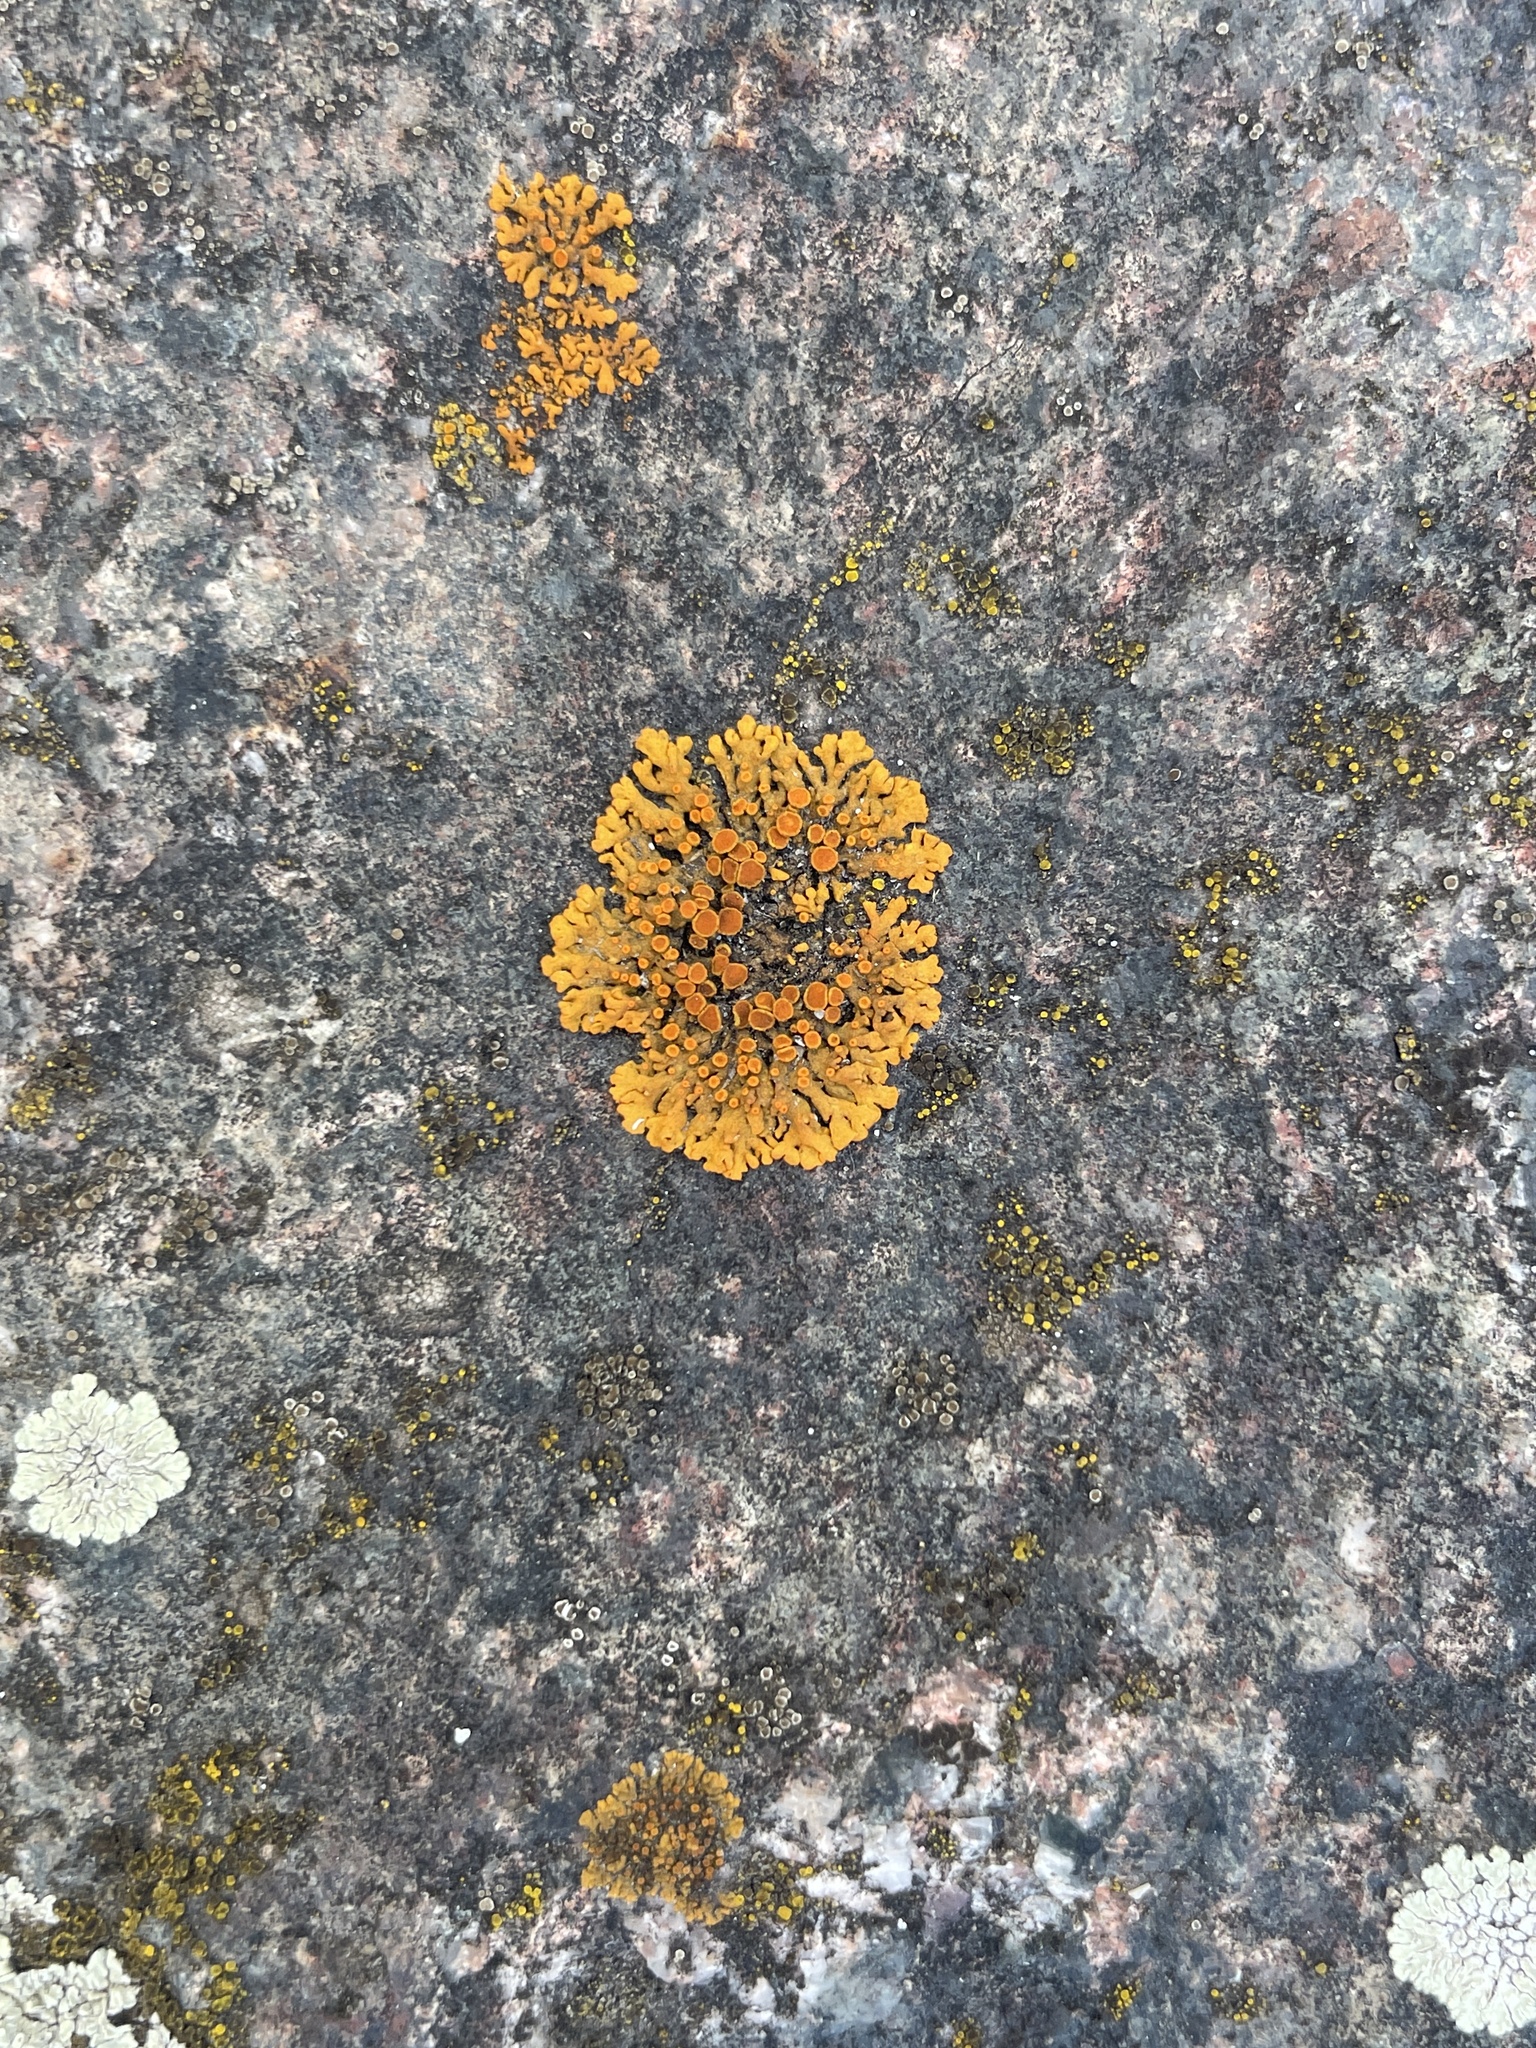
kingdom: Fungi
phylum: Ascomycota
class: Lecanoromycetes
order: Teloschistales
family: Teloschistaceae
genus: Xanthoria
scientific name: Xanthoria elegans
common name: Elegant sunburst lichen
